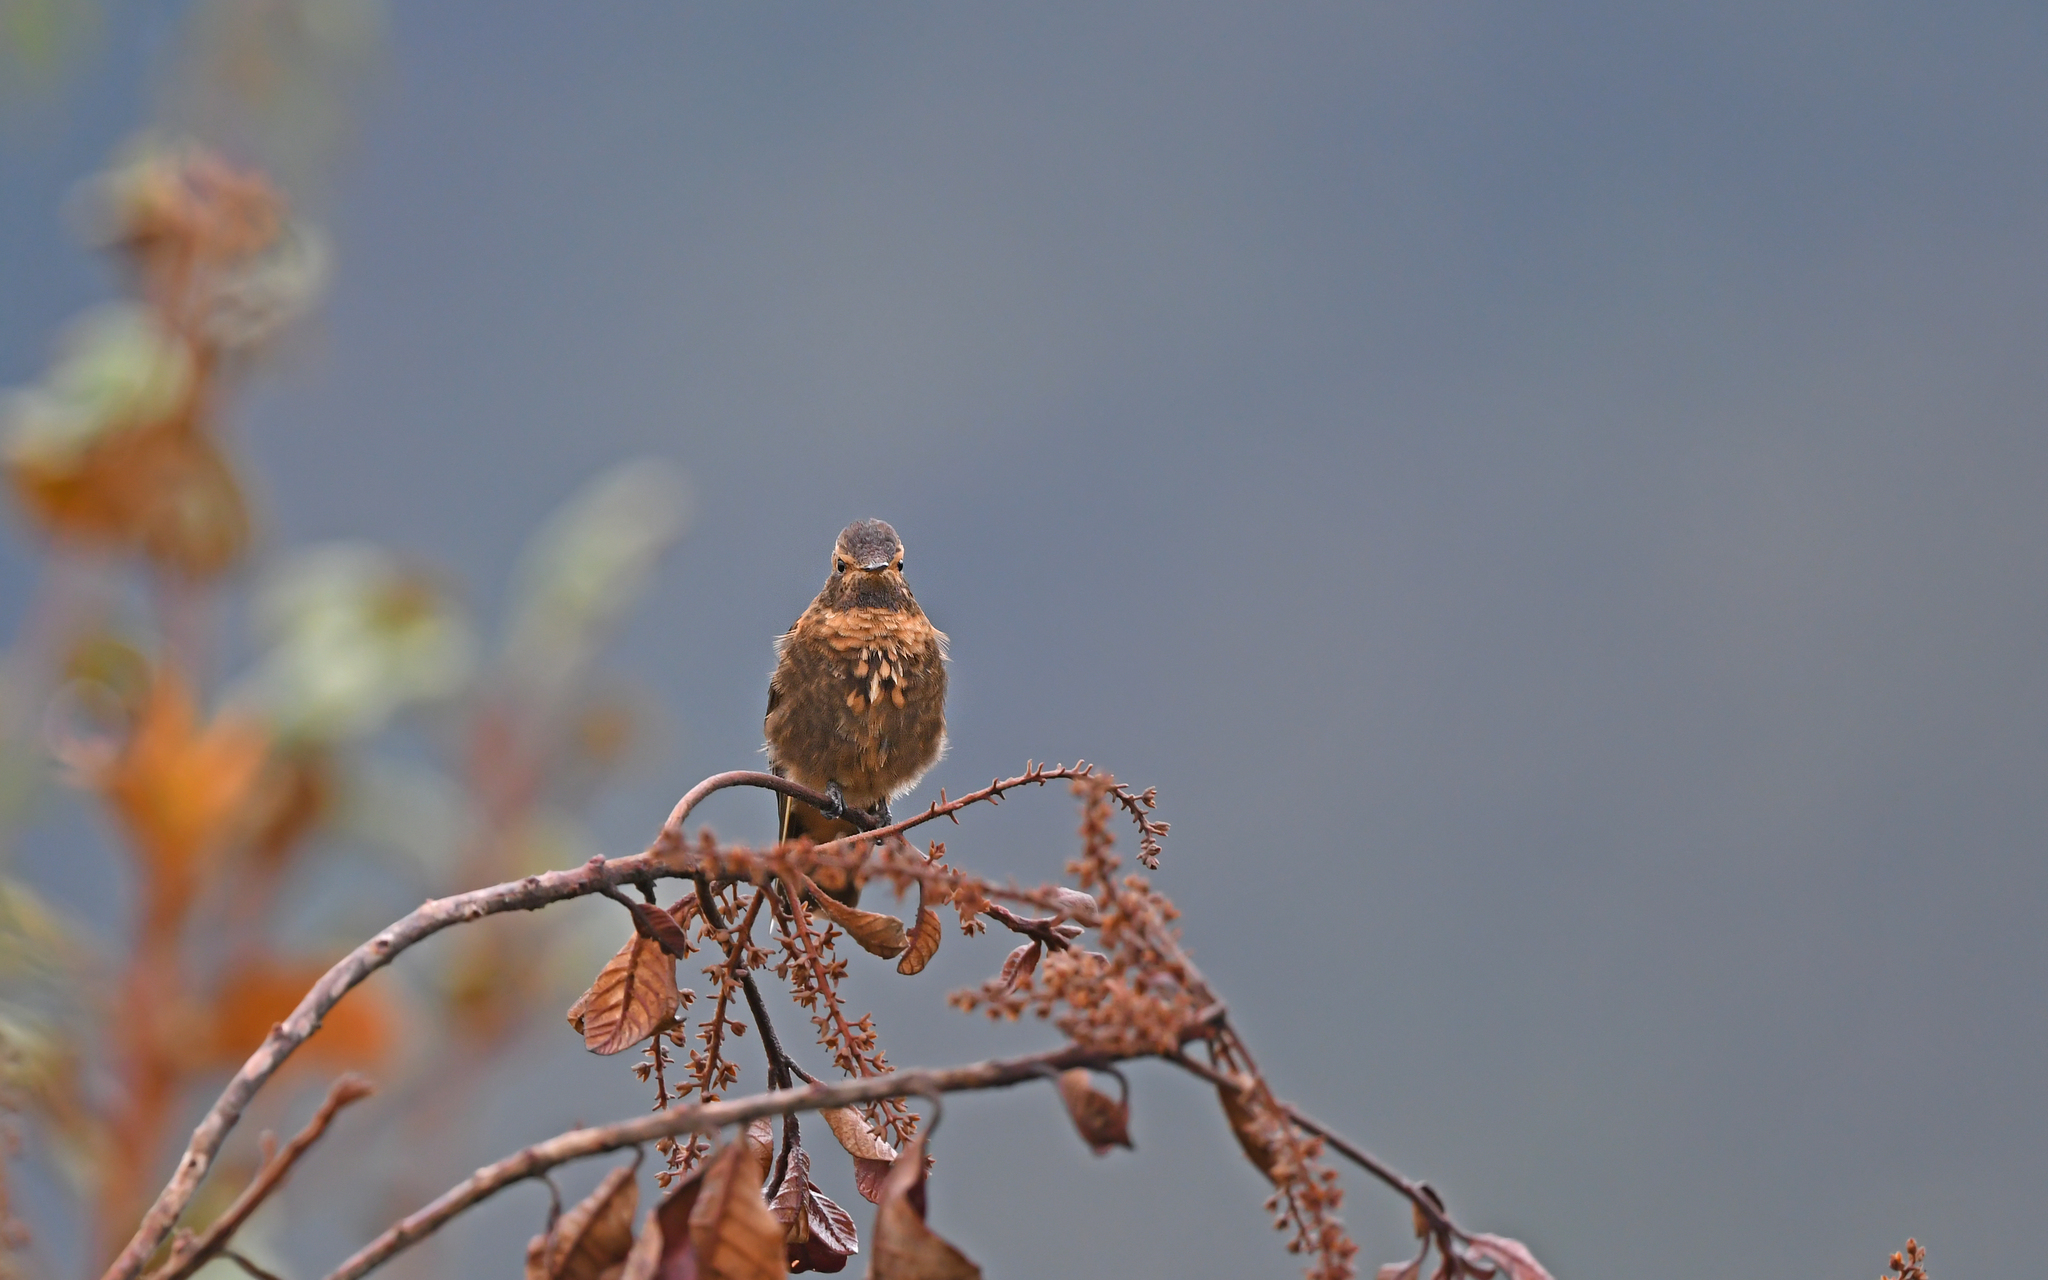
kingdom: Animalia
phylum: Chordata
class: Aves
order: Apodiformes
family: Trochilidae
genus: Aglaeactis
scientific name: Aglaeactis cupripennis
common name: Shining sunbeam
